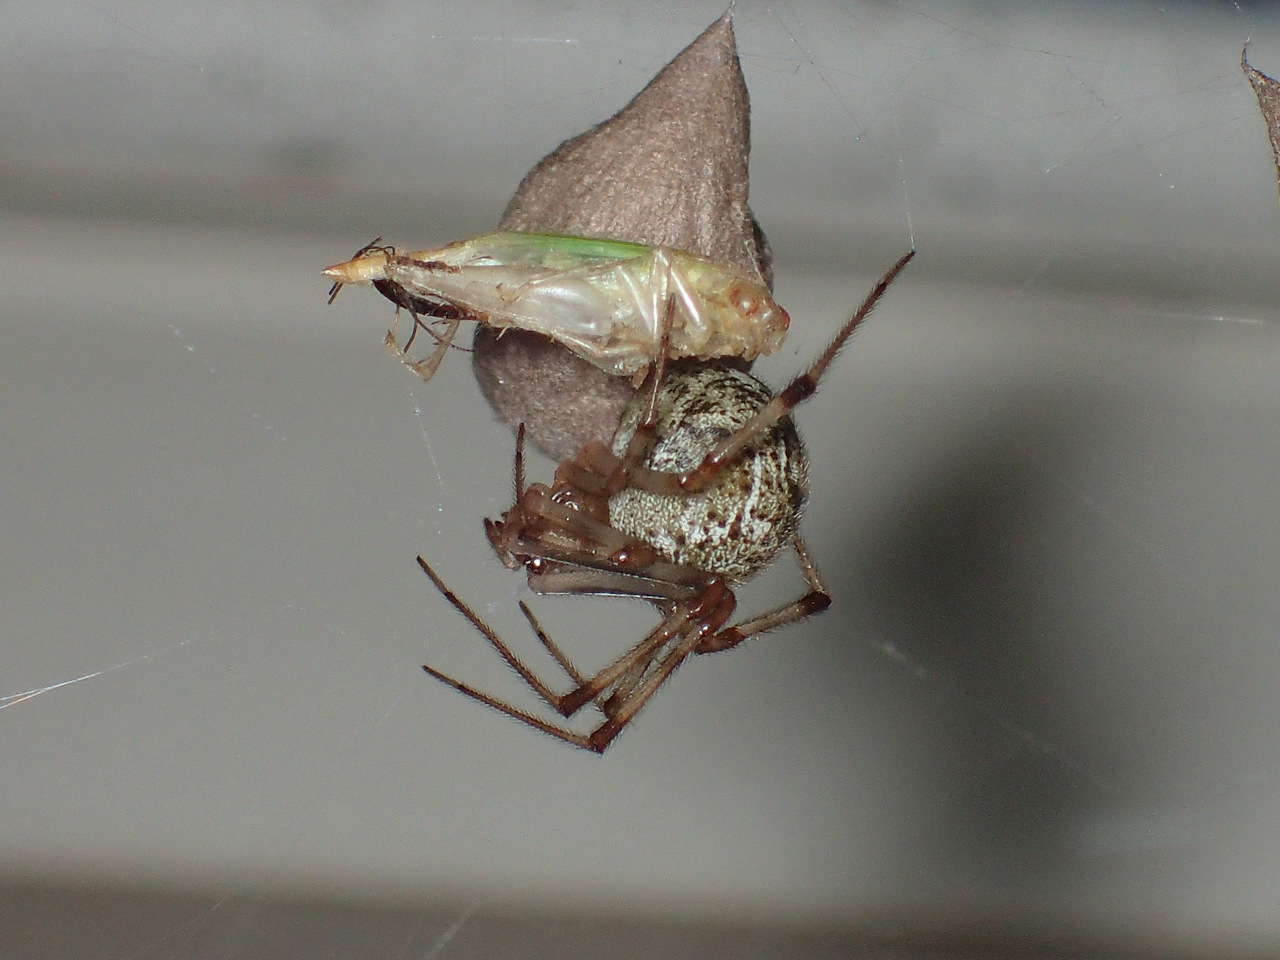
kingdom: Animalia
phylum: Arthropoda
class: Arachnida
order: Araneae
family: Theridiidae
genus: Parasteatoda
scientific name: Parasteatoda tepidariorum
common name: Common house spider
